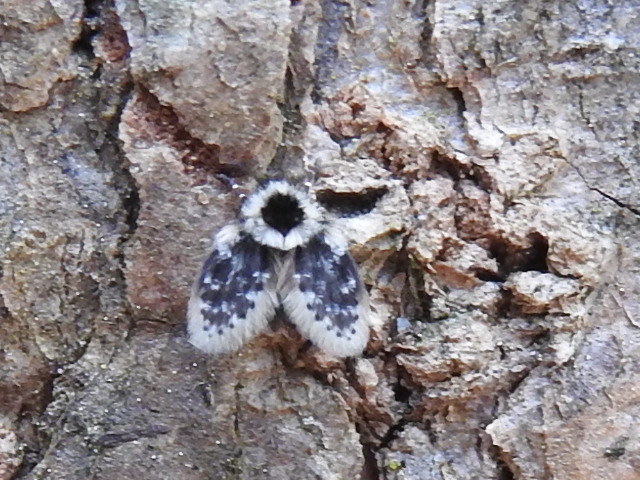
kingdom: Animalia
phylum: Arthropoda
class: Insecta
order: Diptera
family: Psychodidae
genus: Lepiseodina
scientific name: Lepiseodina
